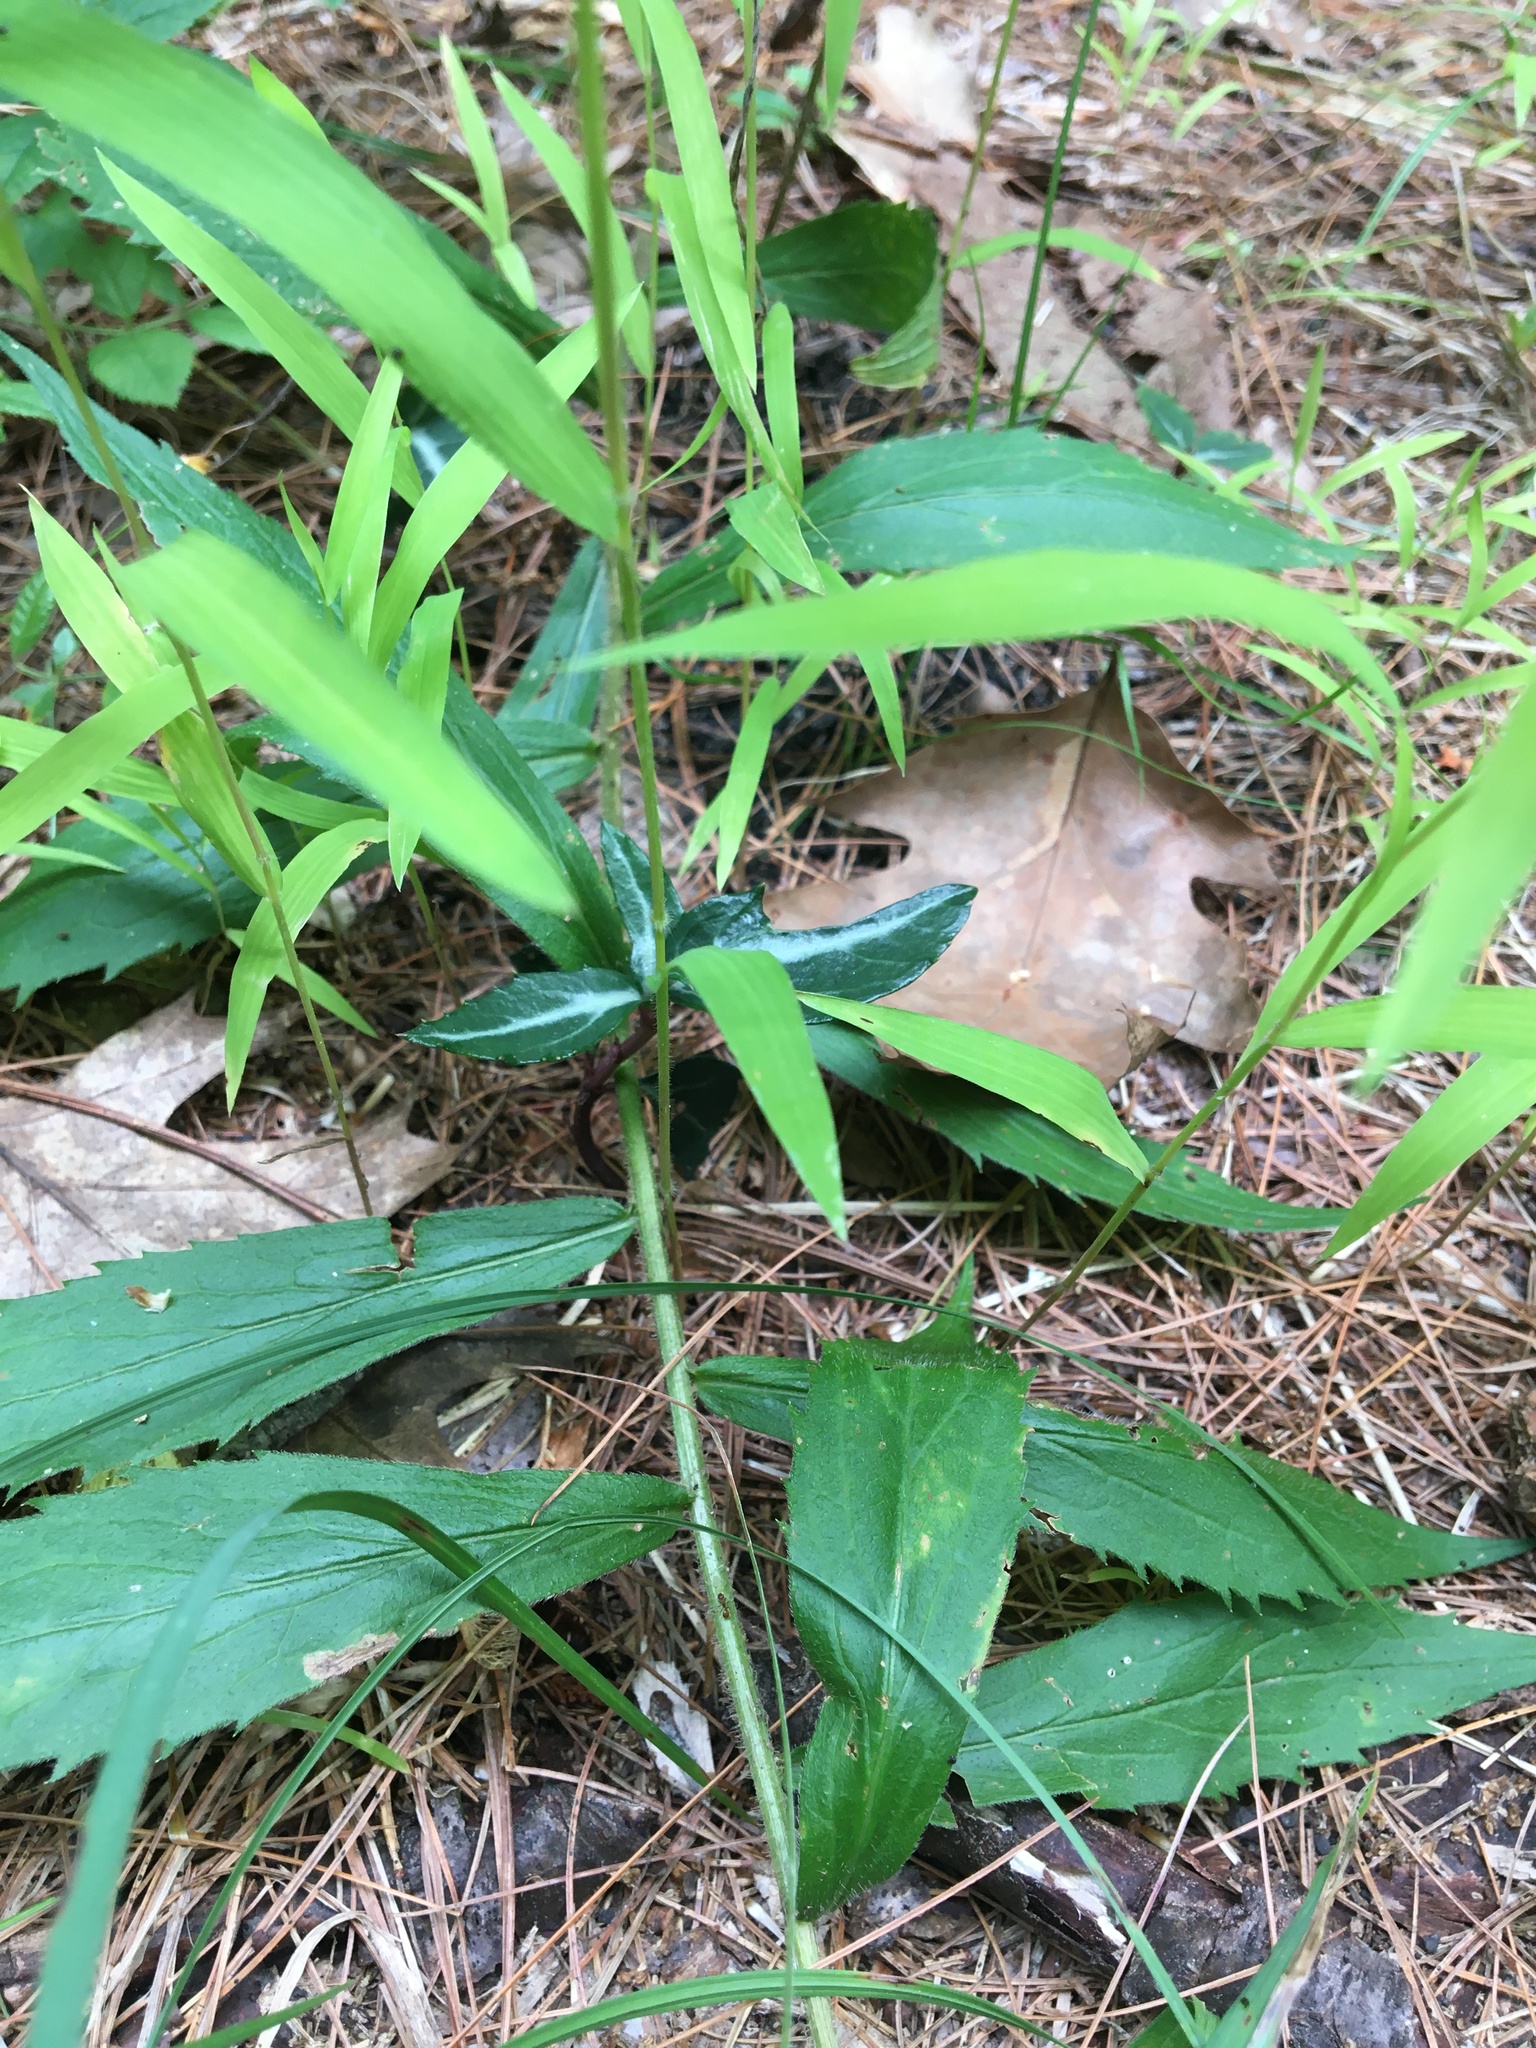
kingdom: Plantae
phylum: Tracheophyta
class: Magnoliopsida
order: Ericales
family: Ericaceae
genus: Chimaphila
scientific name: Chimaphila maculata
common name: Spotted pipsissewa
